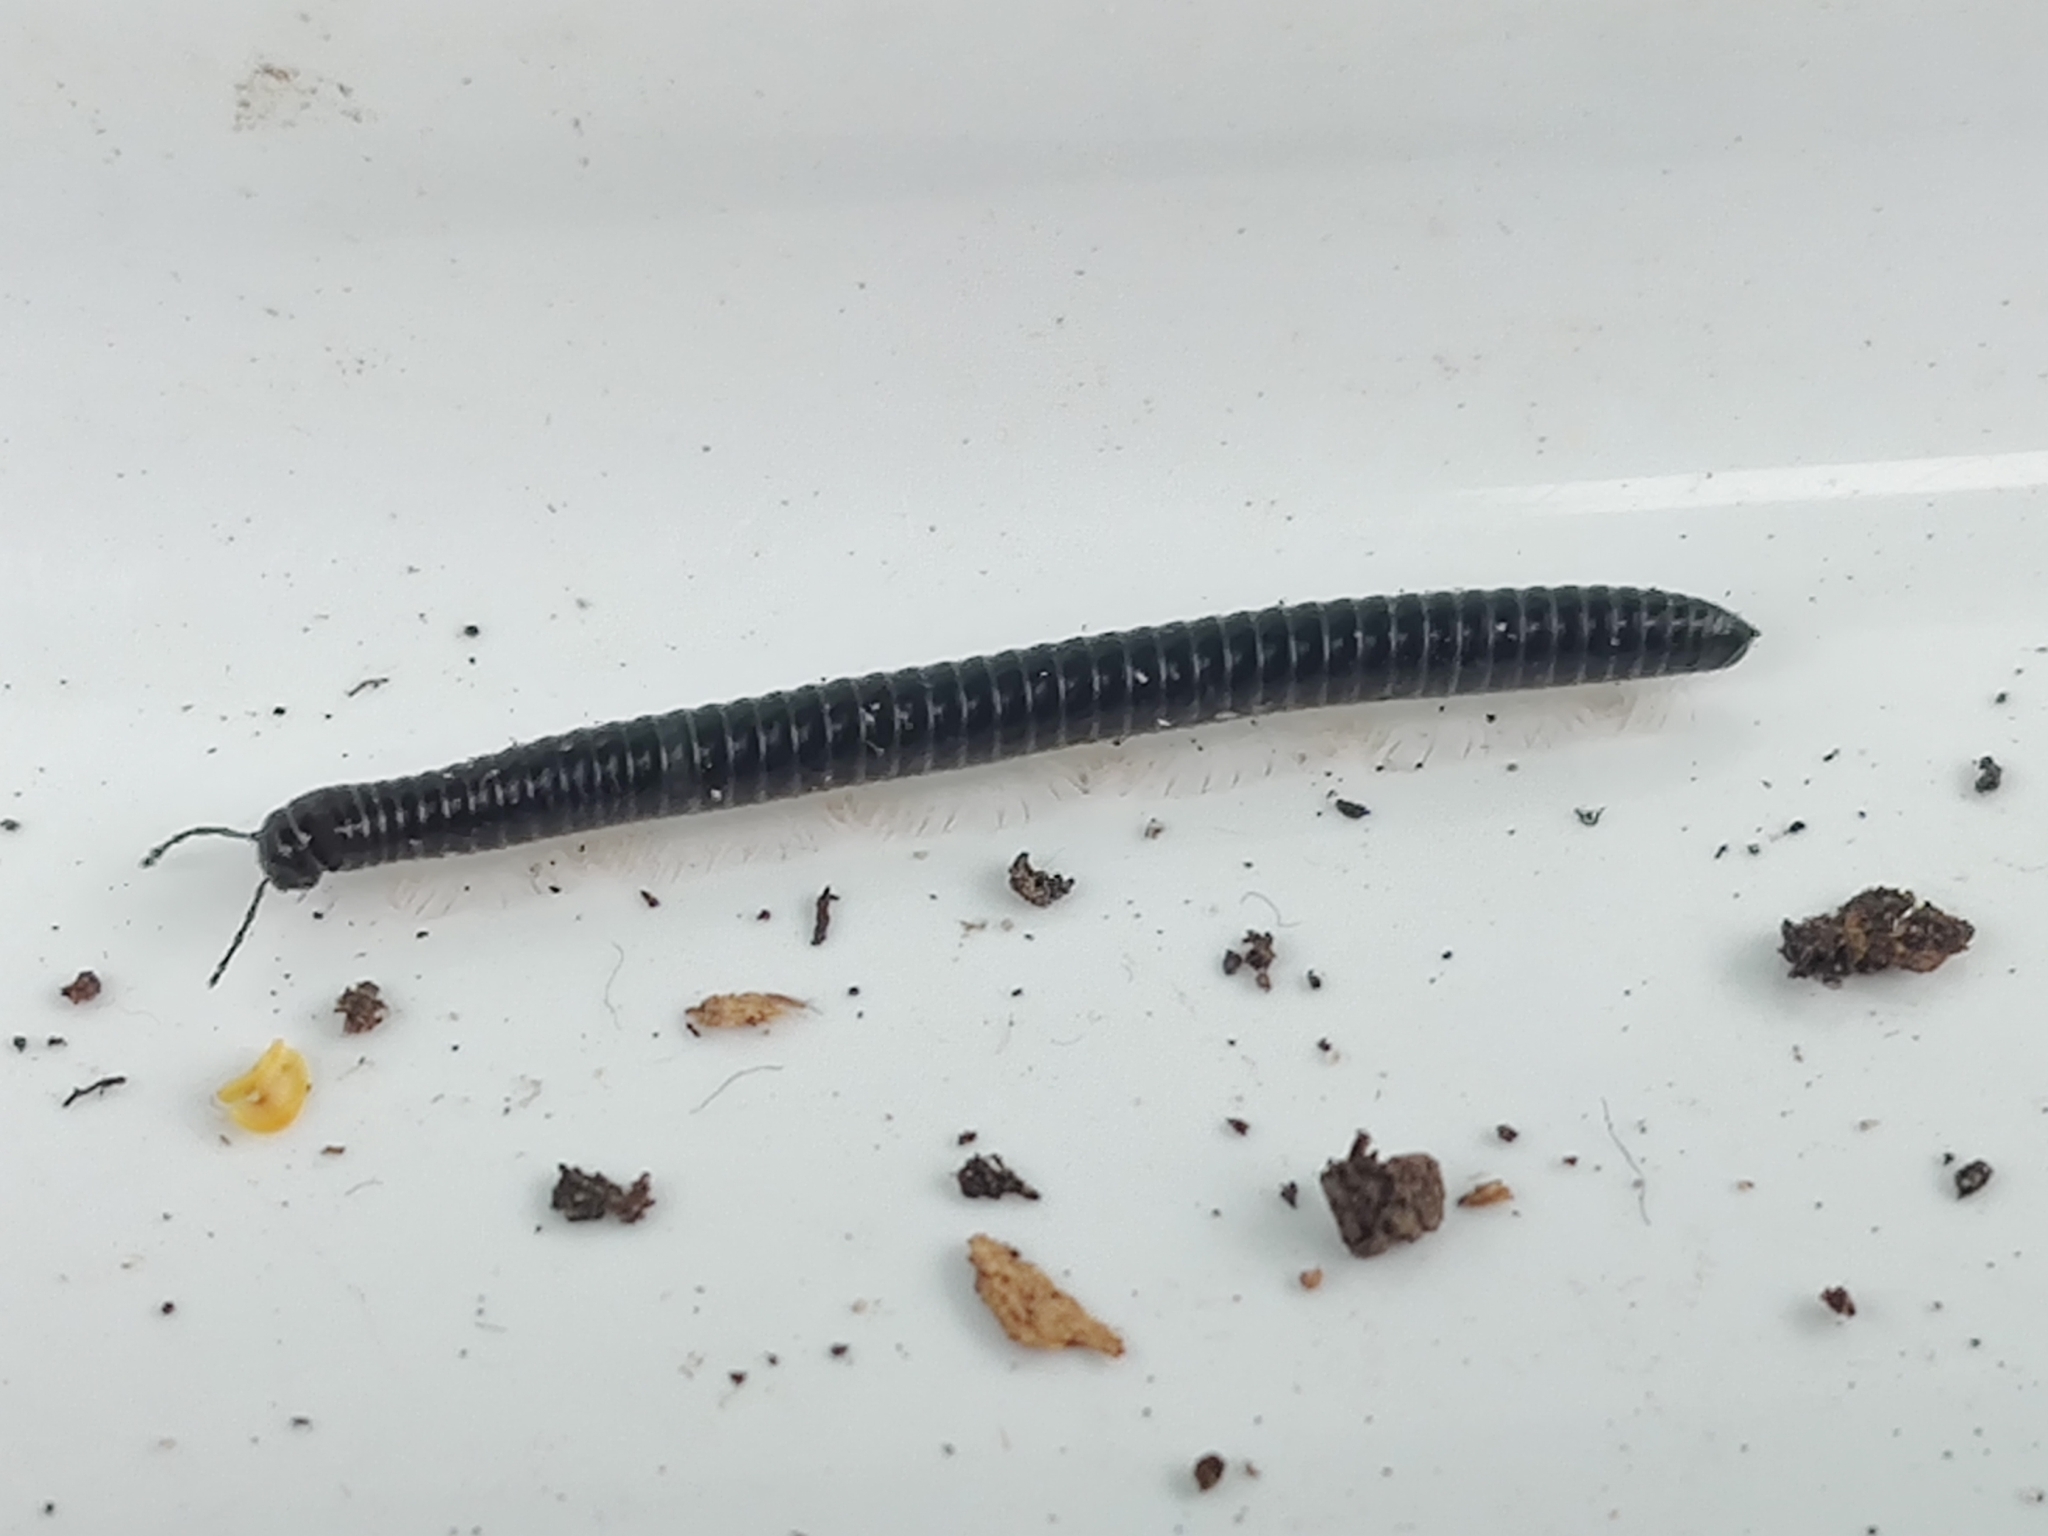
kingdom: Animalia
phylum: Arthropoda
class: Diplopoda
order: Julida
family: Julidae
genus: Tachypodoiulus
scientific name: Tachypodoiulus niger
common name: White-legged snake millipede
